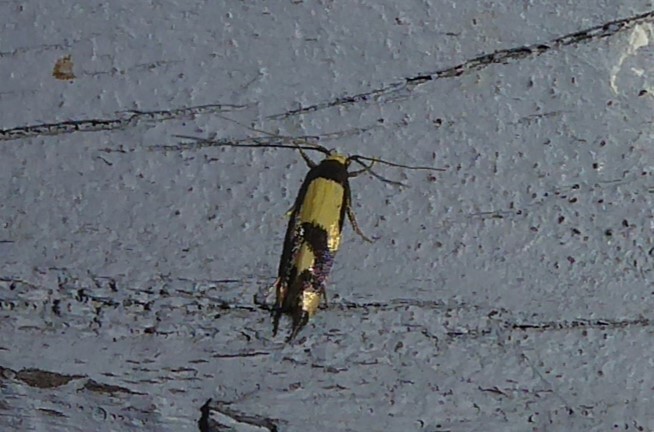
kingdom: Animalia
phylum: Arthropoda
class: Insecta
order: Lepidoptera
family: Tineidae
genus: Opogona
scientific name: Opogona comptella
